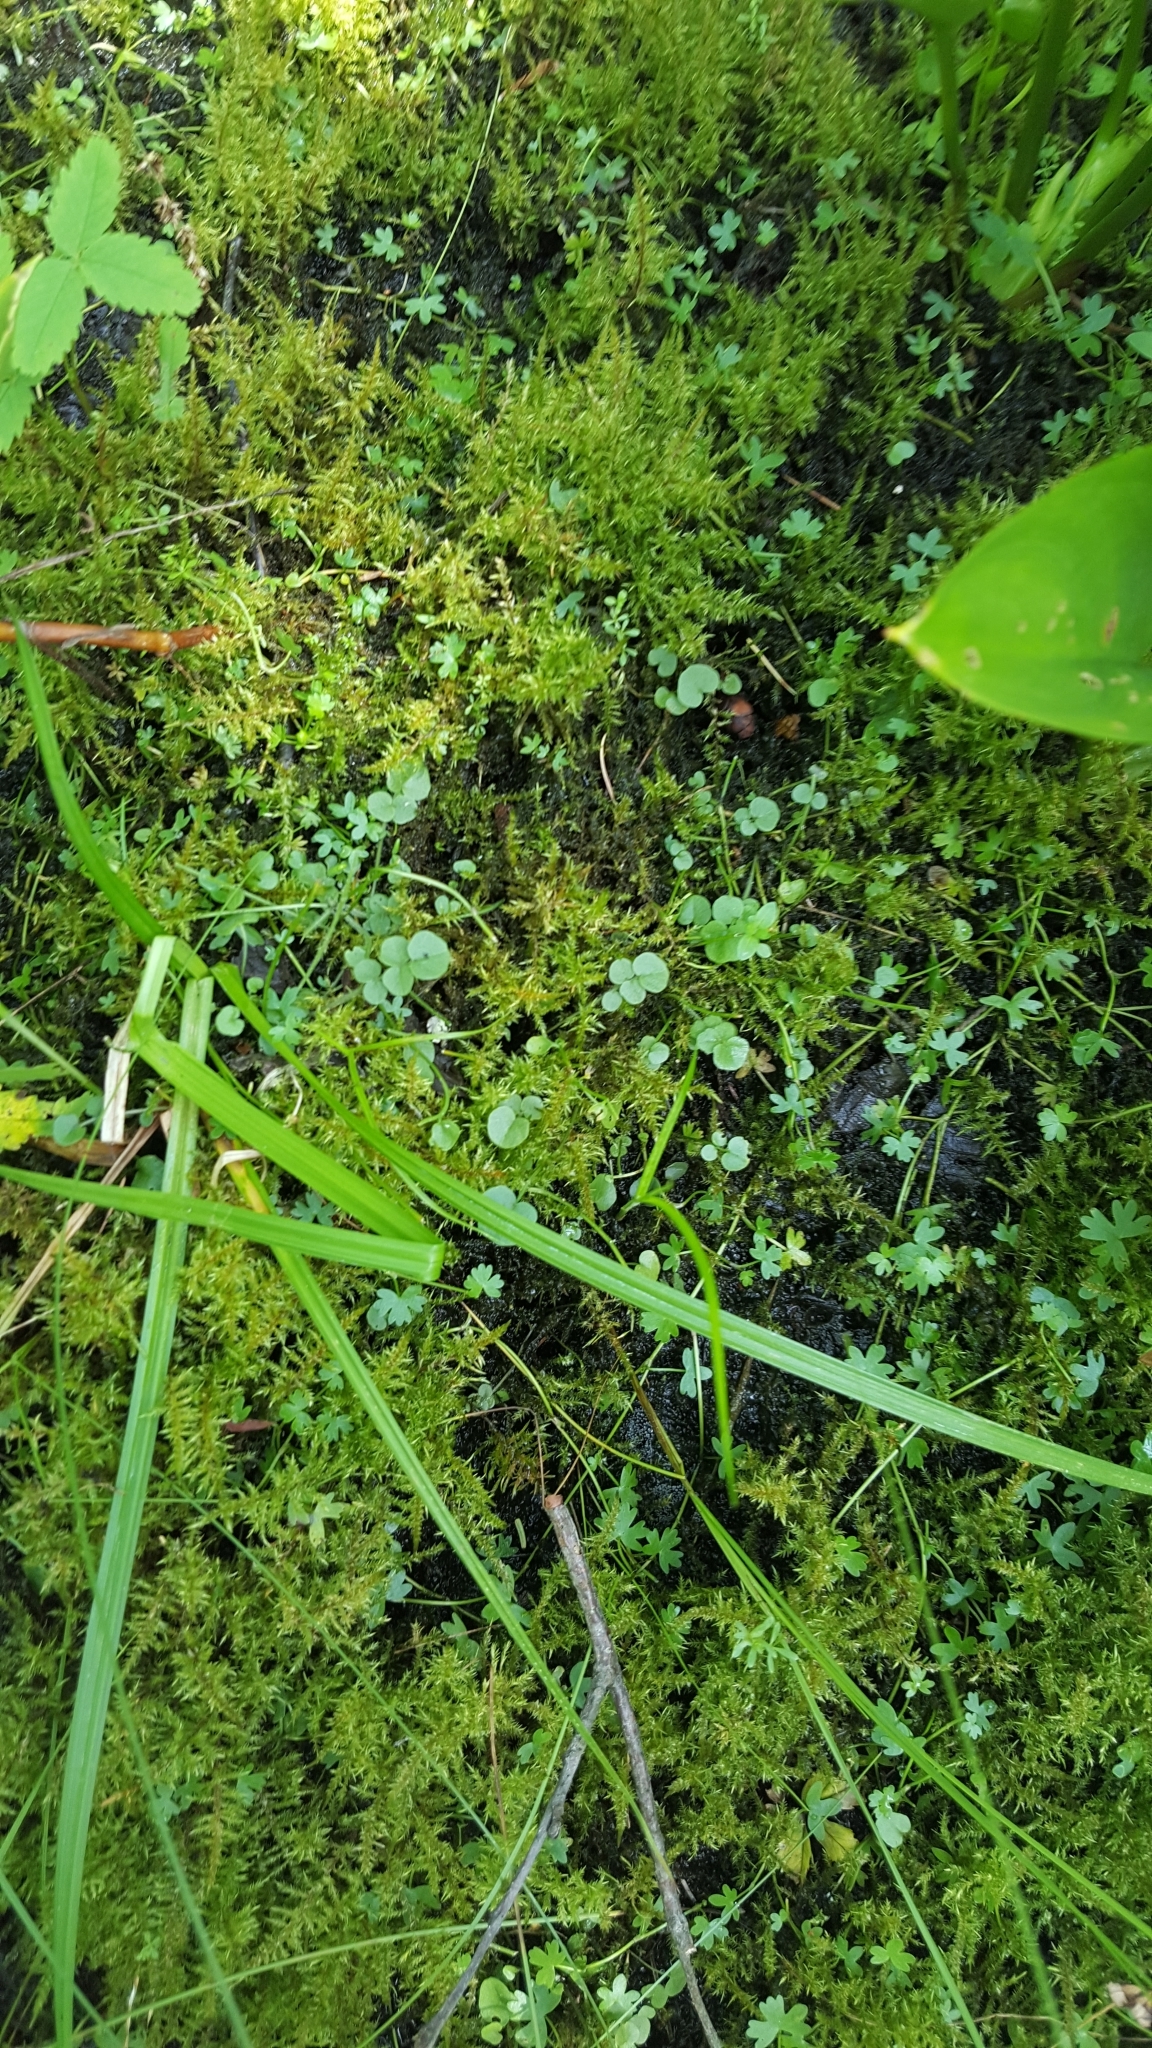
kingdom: Plantae
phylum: Tracheophyta
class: Magnoliopsida
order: Brassicales
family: Brassicaceae
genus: Cardamine
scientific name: Cardamine pratensis
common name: Cuckoo flower
